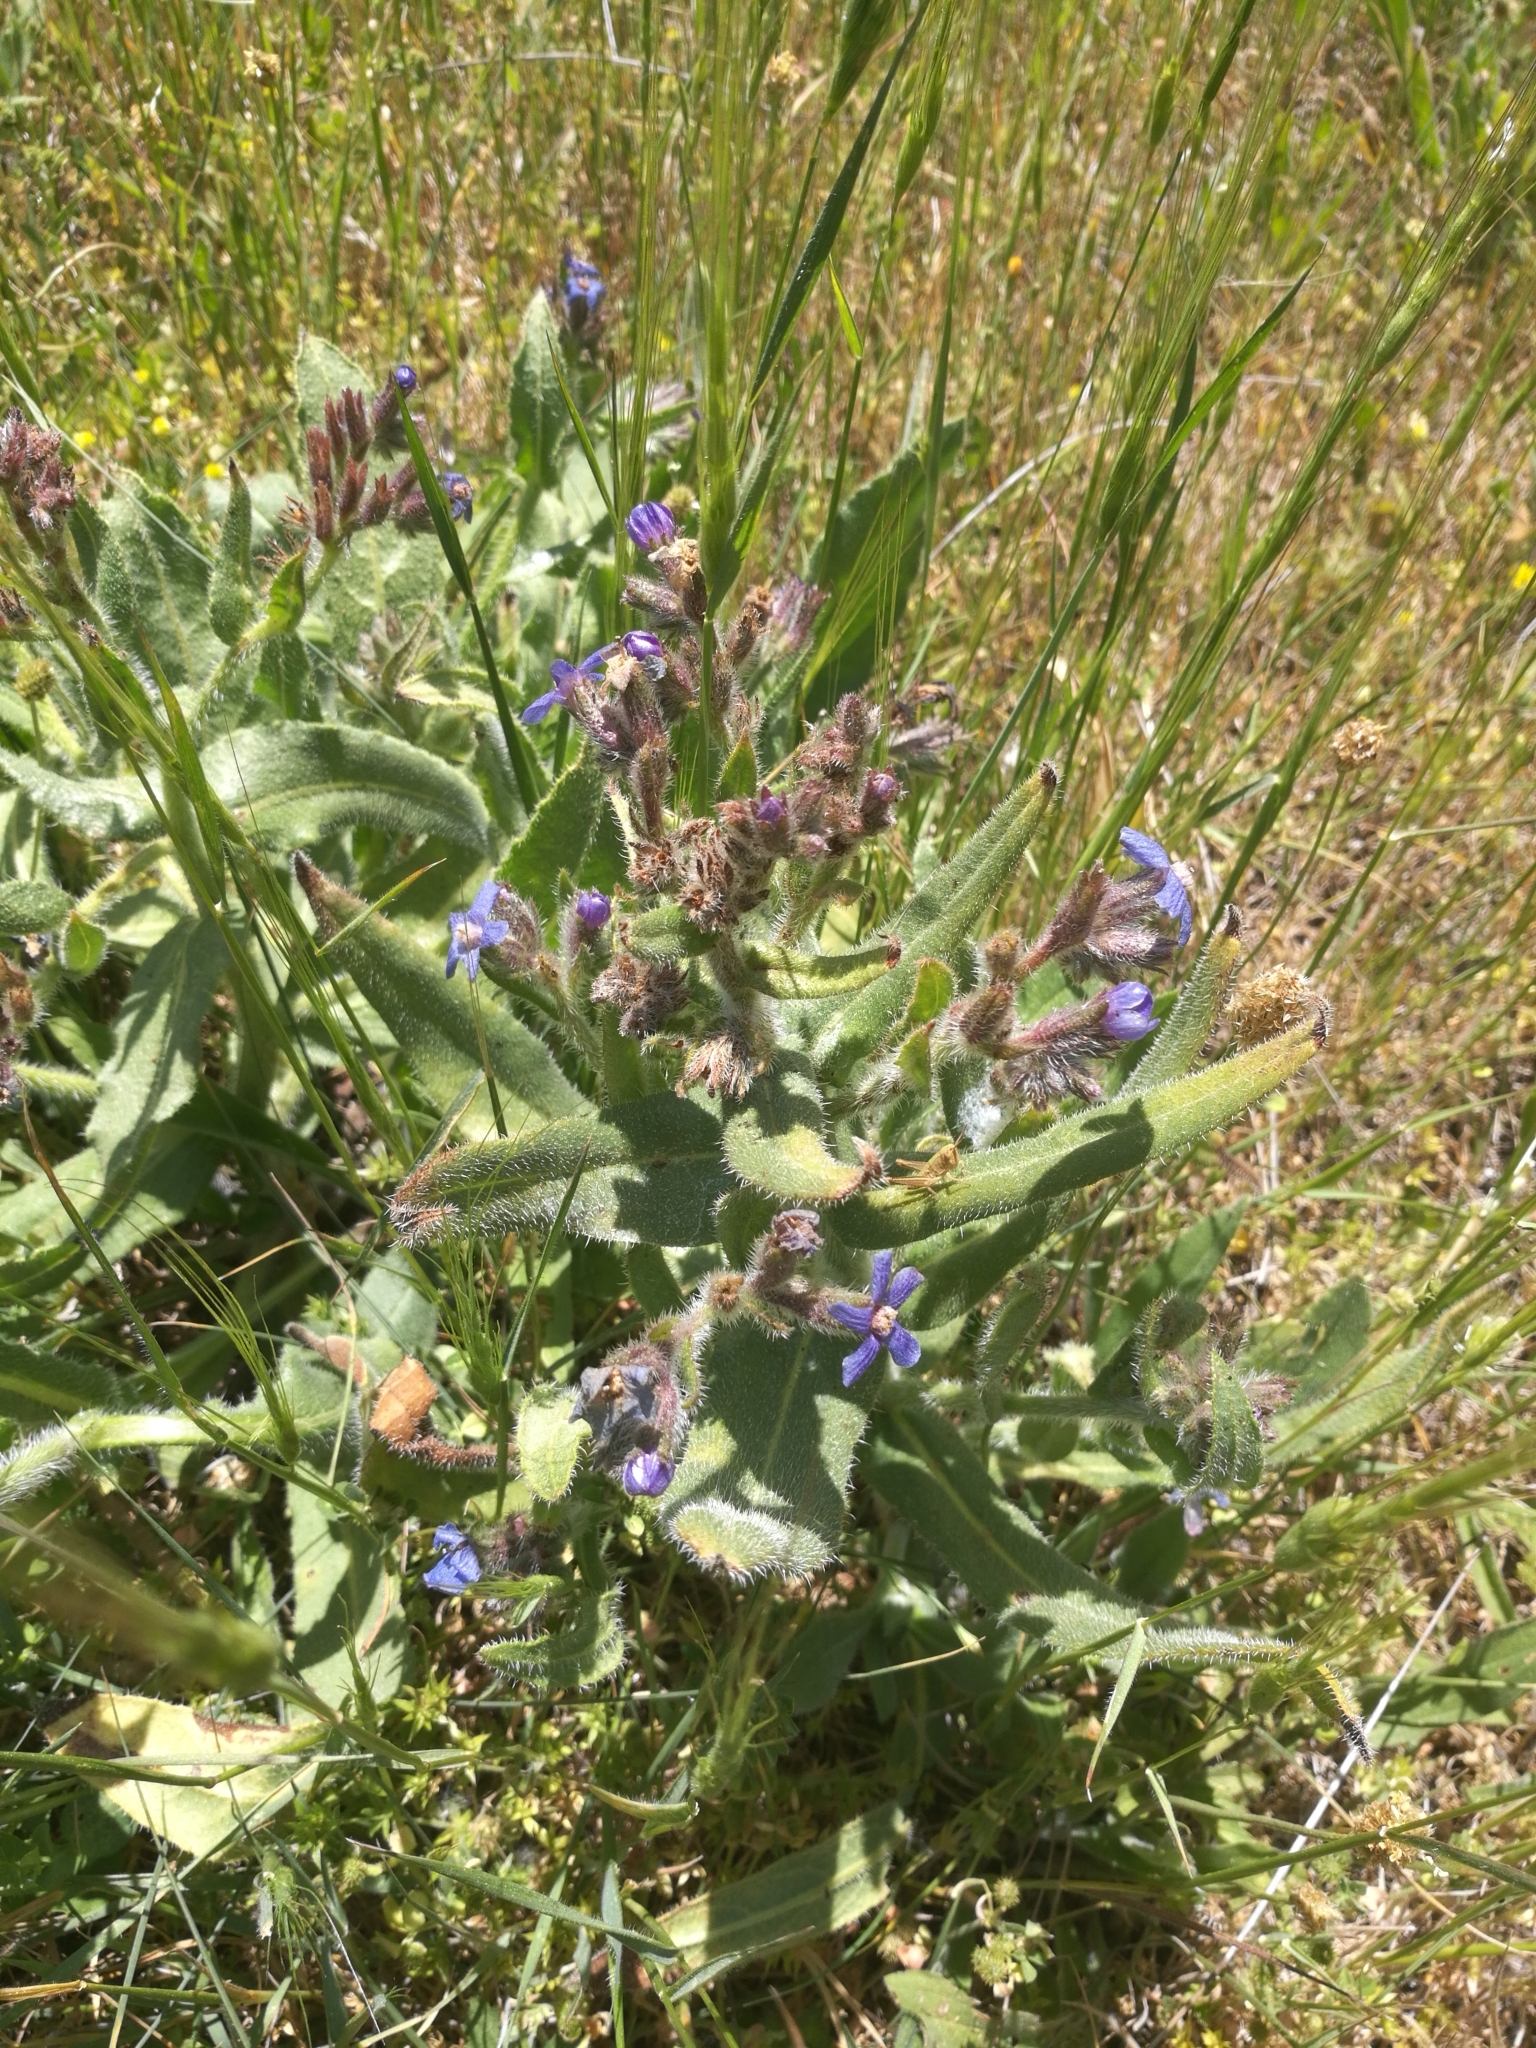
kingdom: Plantae
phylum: Tracheophyta
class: Magnoliopsida
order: Boraginales
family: Boraginaceae
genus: Anchusa
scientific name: Anchusa azurea
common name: Garden anchusa
